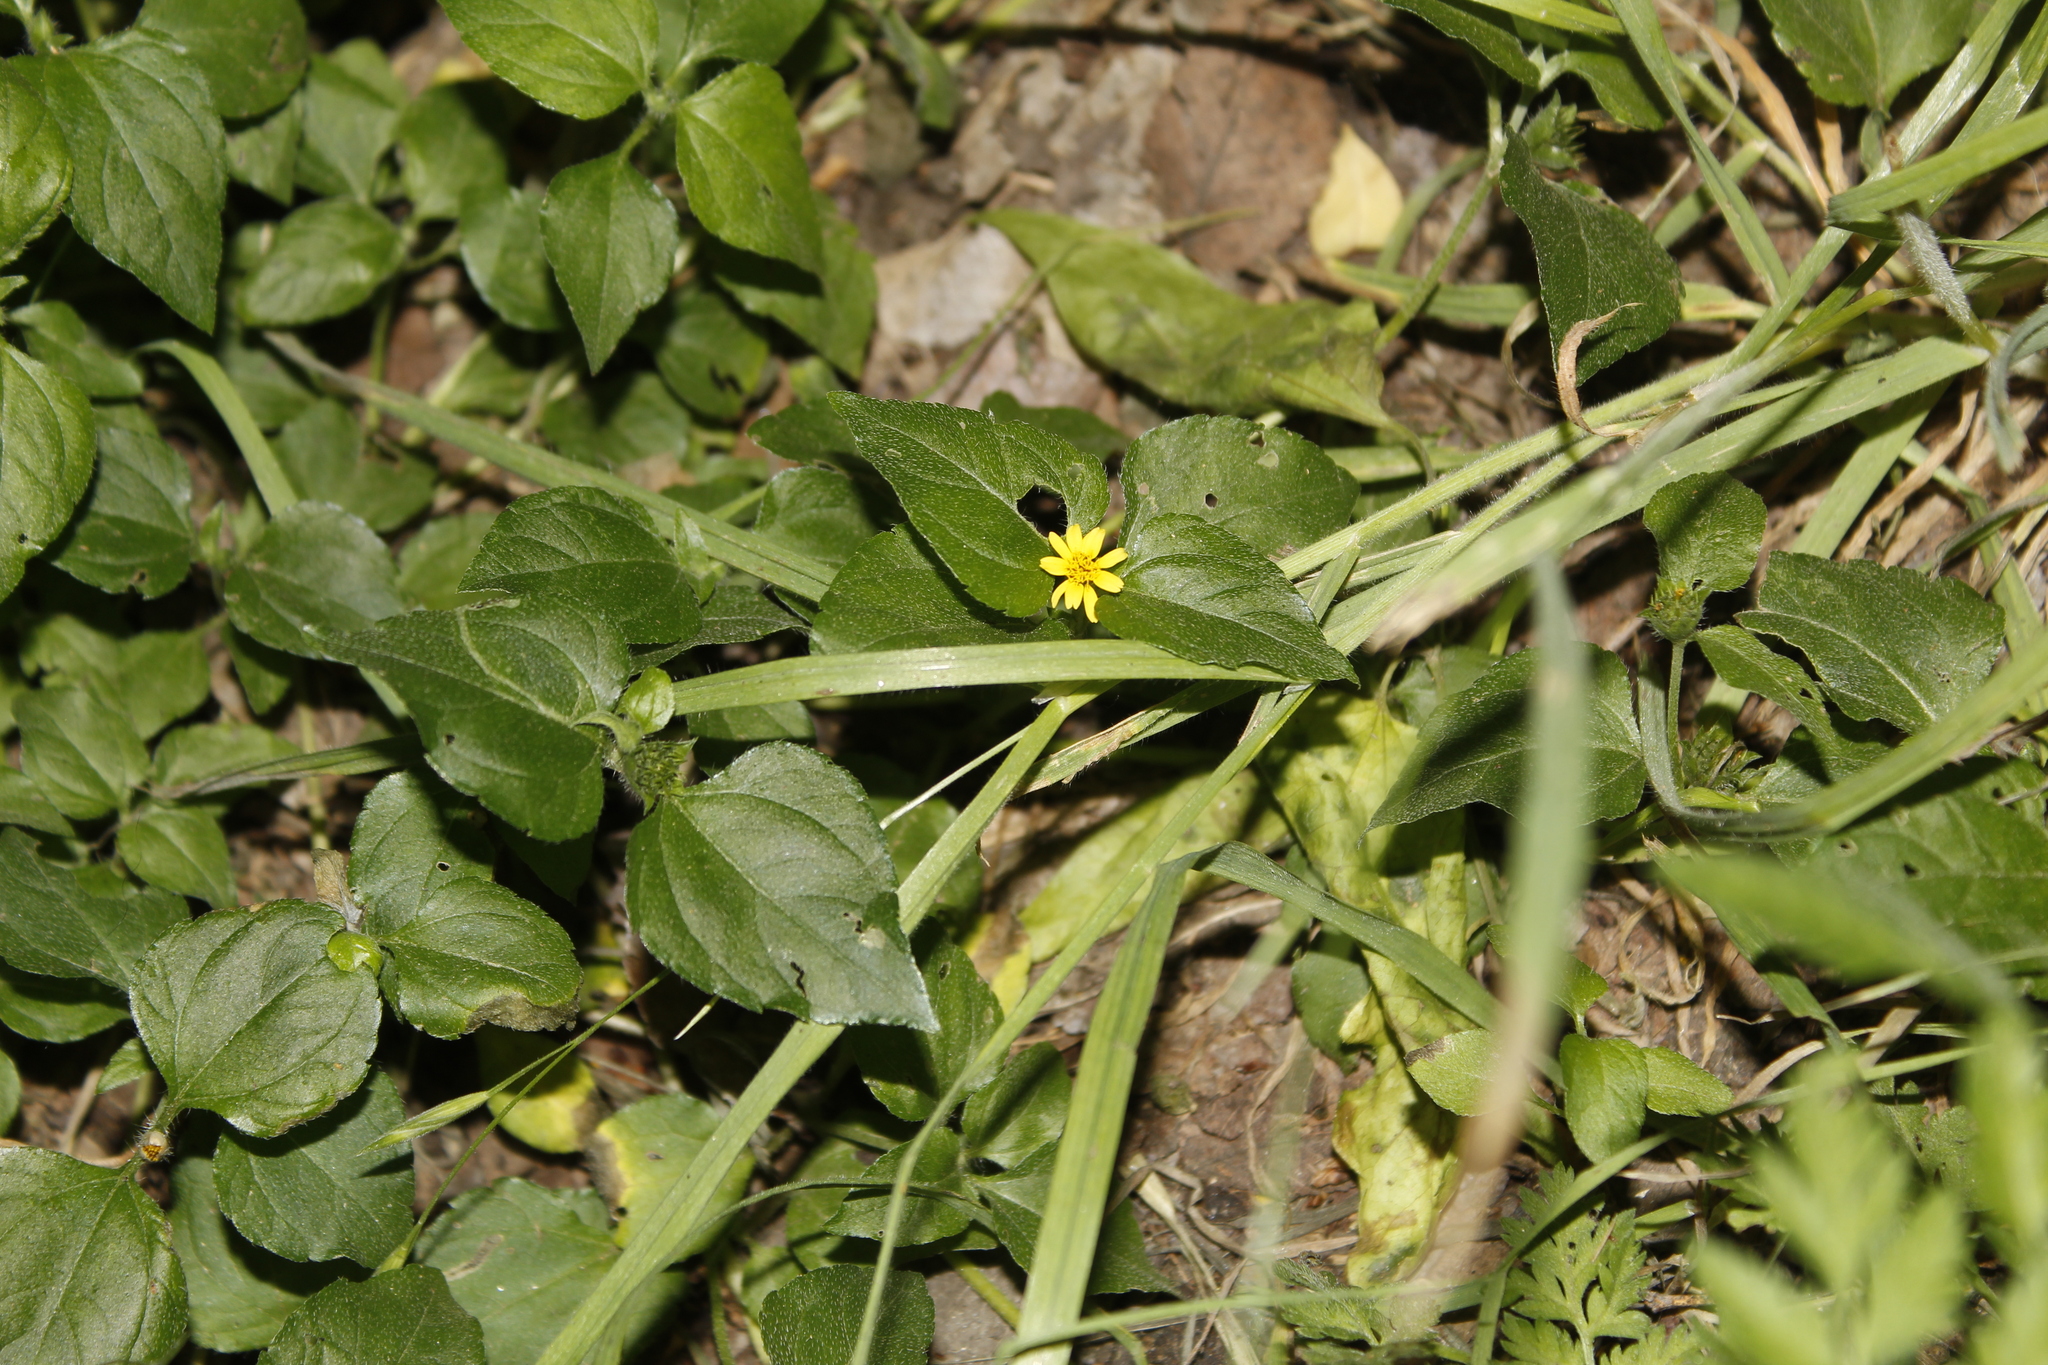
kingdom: Plantae
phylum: Tracheophyta
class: Magnoliopsida
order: Asterales
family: Asteraceae
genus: Calyptocarpus
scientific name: Calyptocarpus vialis
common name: Straggler daisy
